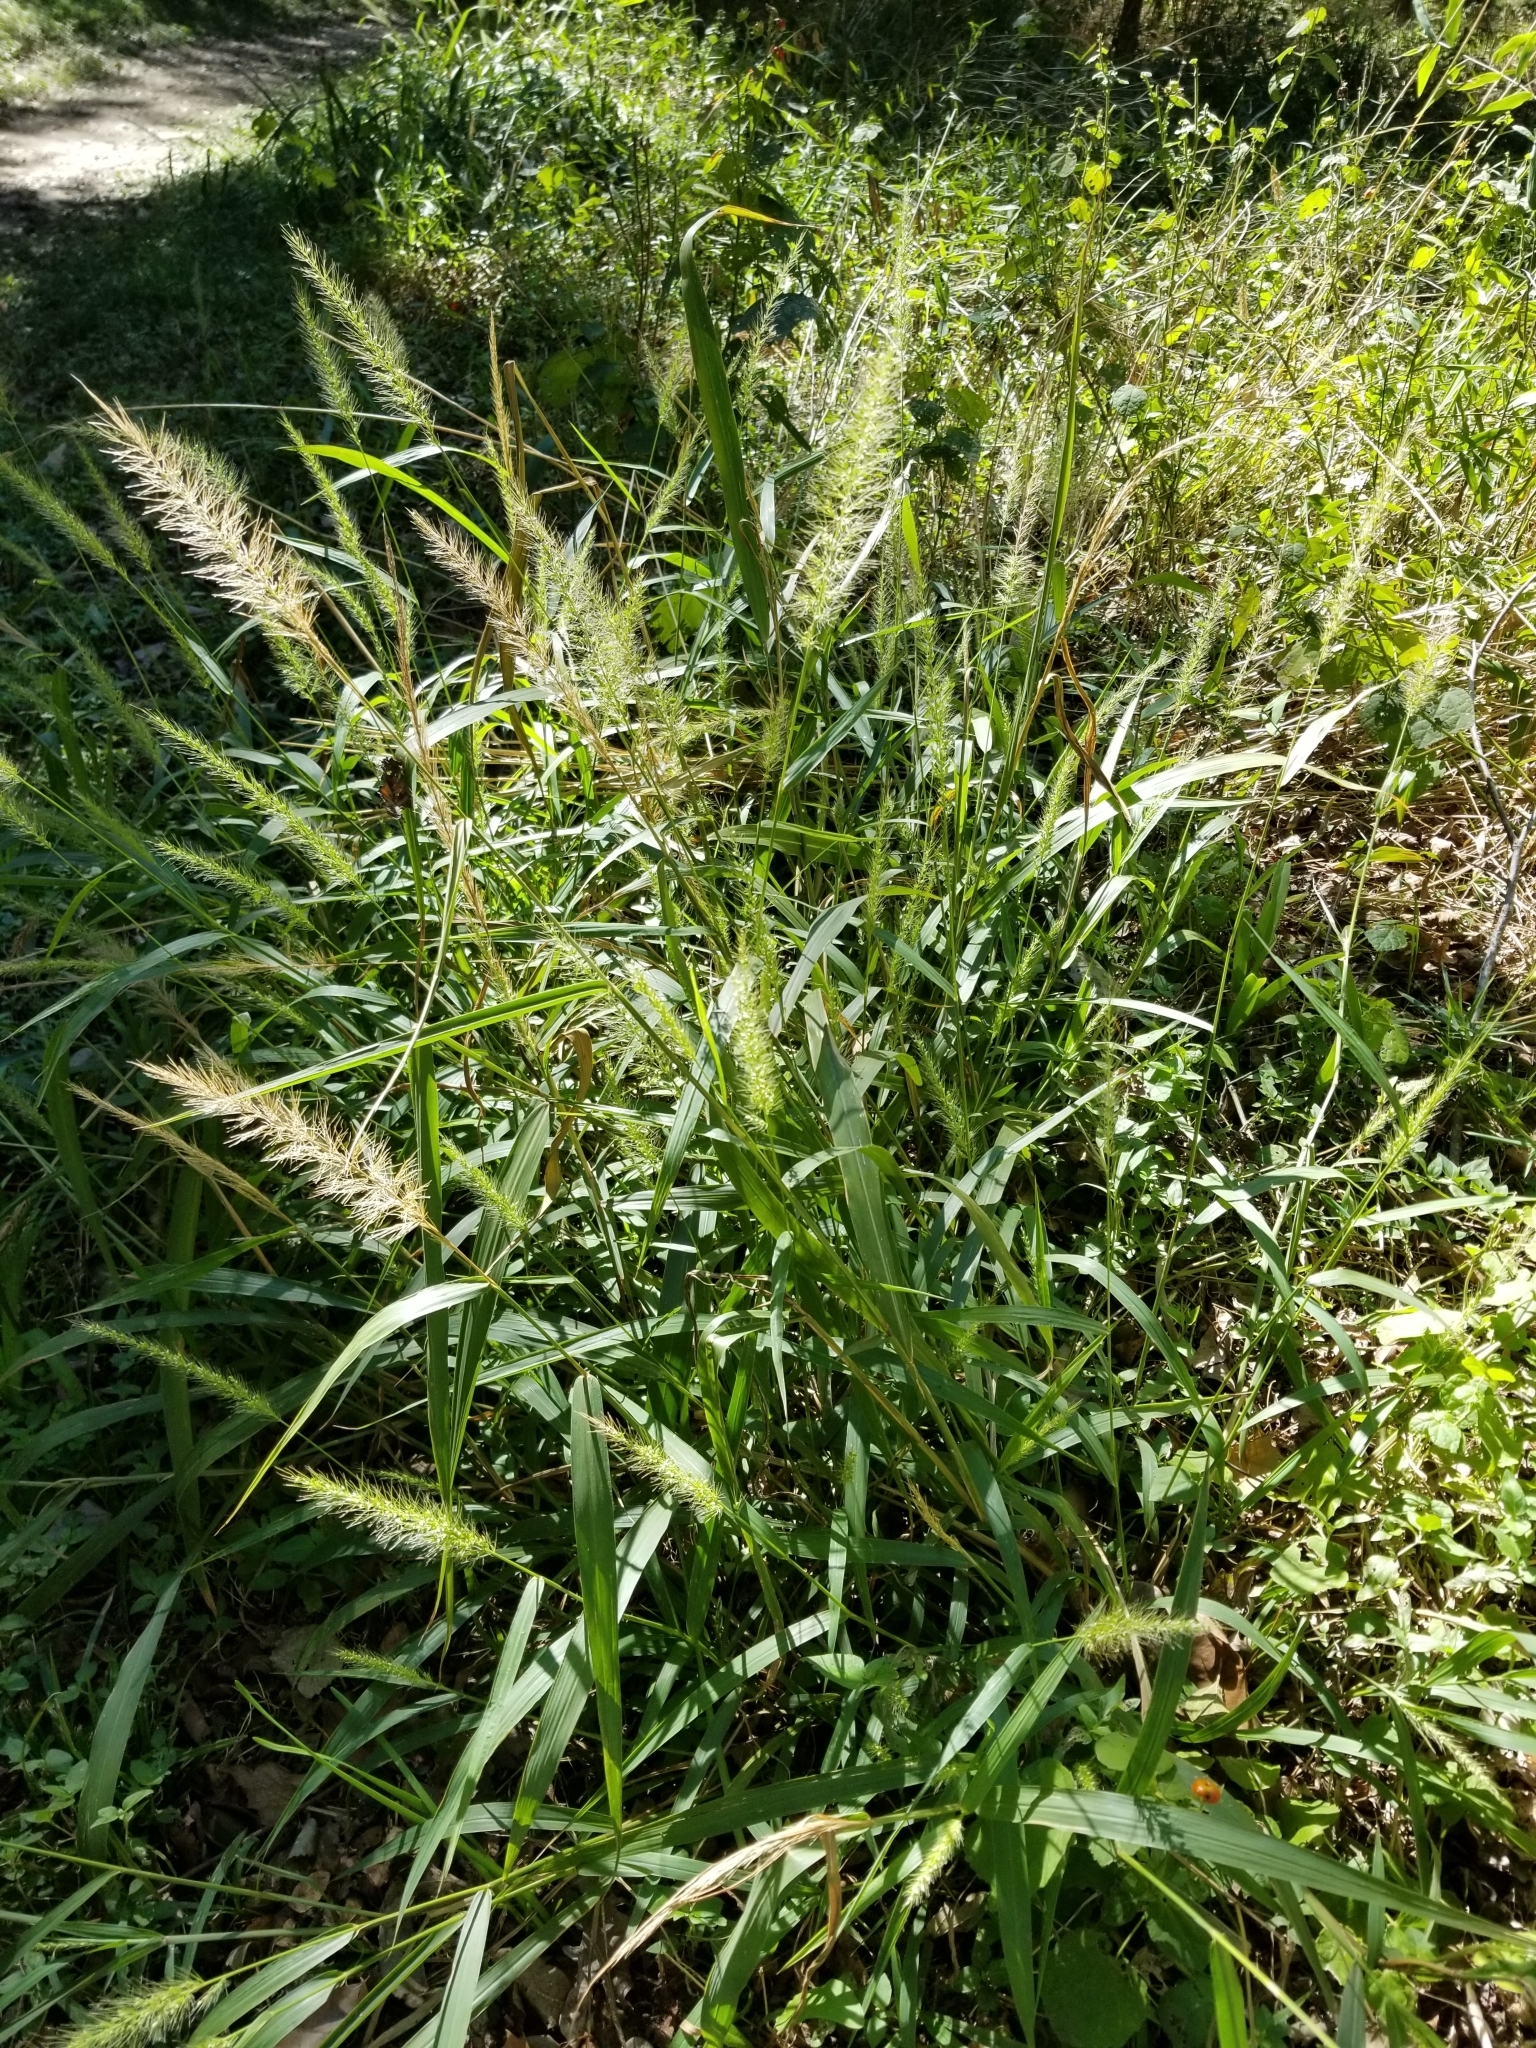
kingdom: Plantae
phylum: Tracheophyta
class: Liliopsida
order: Poales
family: Poaceae
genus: Setaria
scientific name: Setaria scheelei
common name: Southwestern bristle grass
